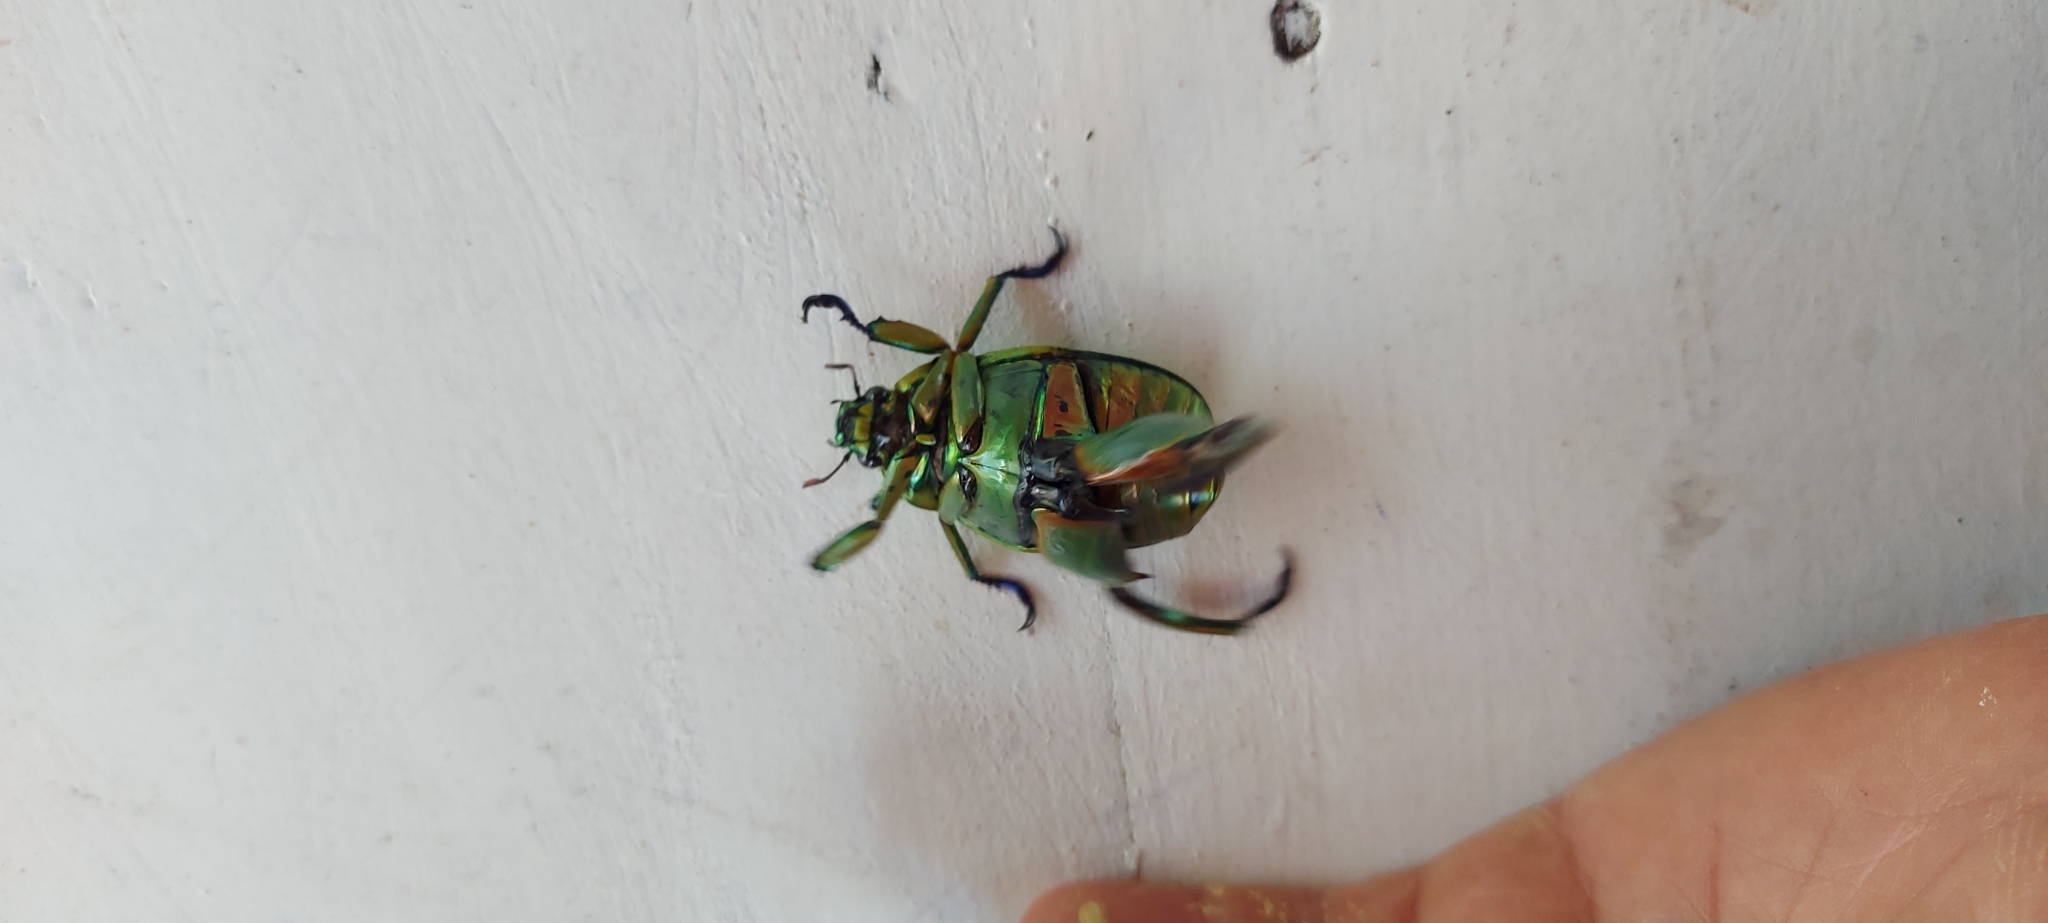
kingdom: Animalia
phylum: Arthropoda
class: Insecta
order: Coleoptera
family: Scarabaeidae
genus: Chrysina
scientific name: Chrysina macropus
